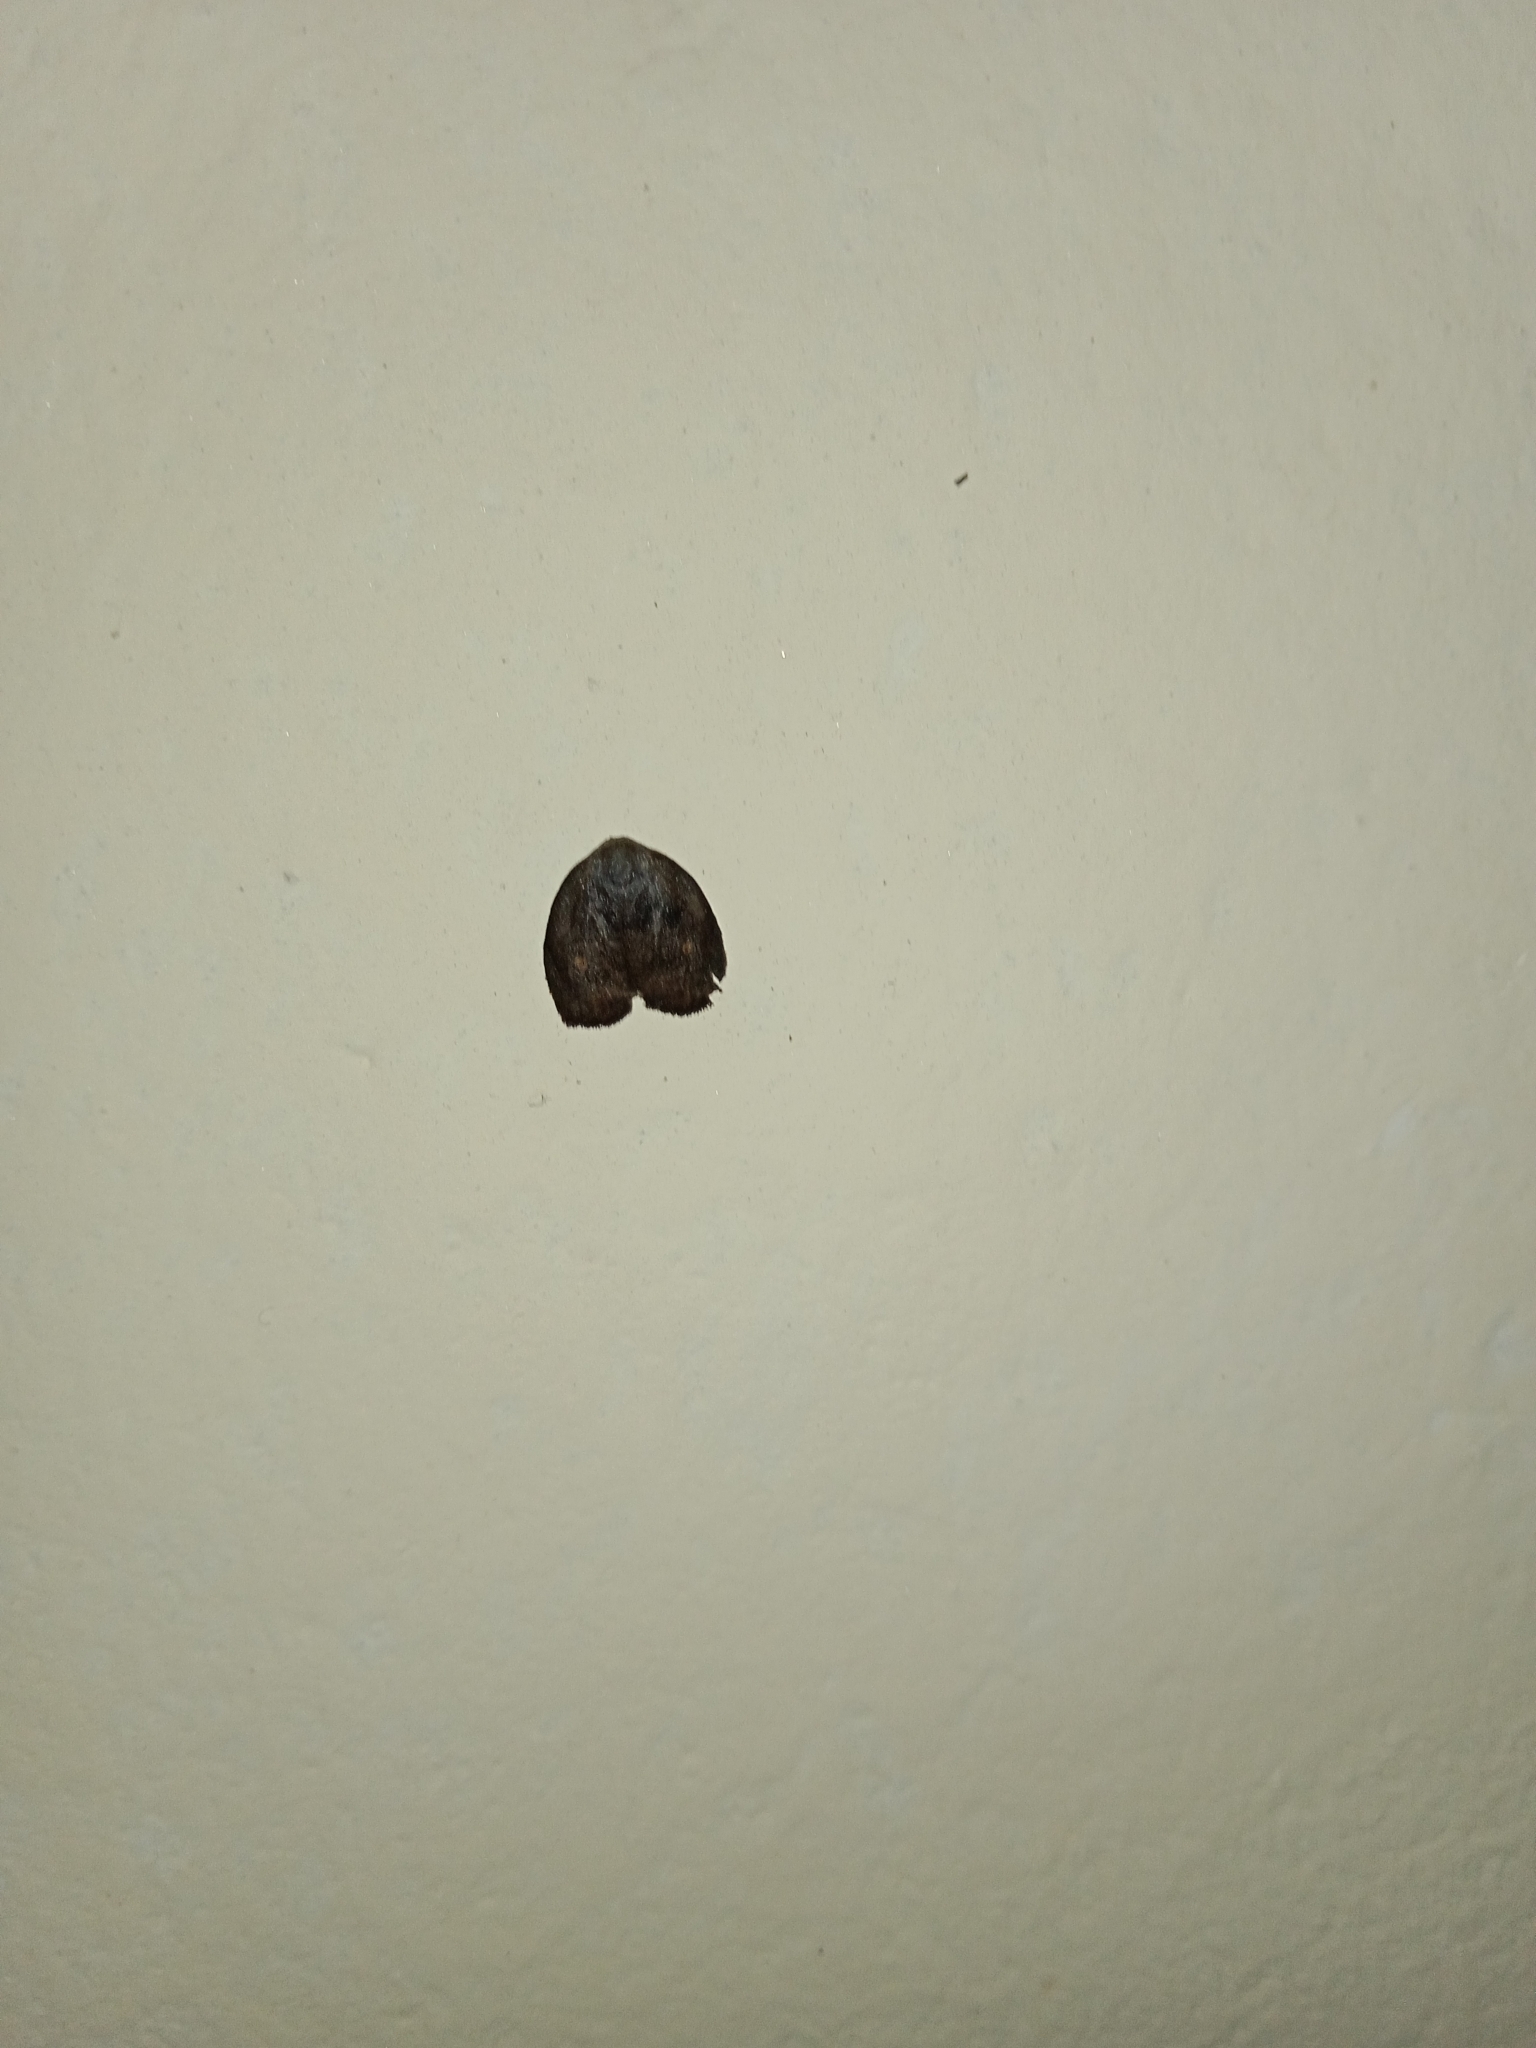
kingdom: Animalia
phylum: Arthropoda
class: Insecta
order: Lepidoptera
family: Erebidae
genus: Hemonia
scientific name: Hemonia orbiferana
